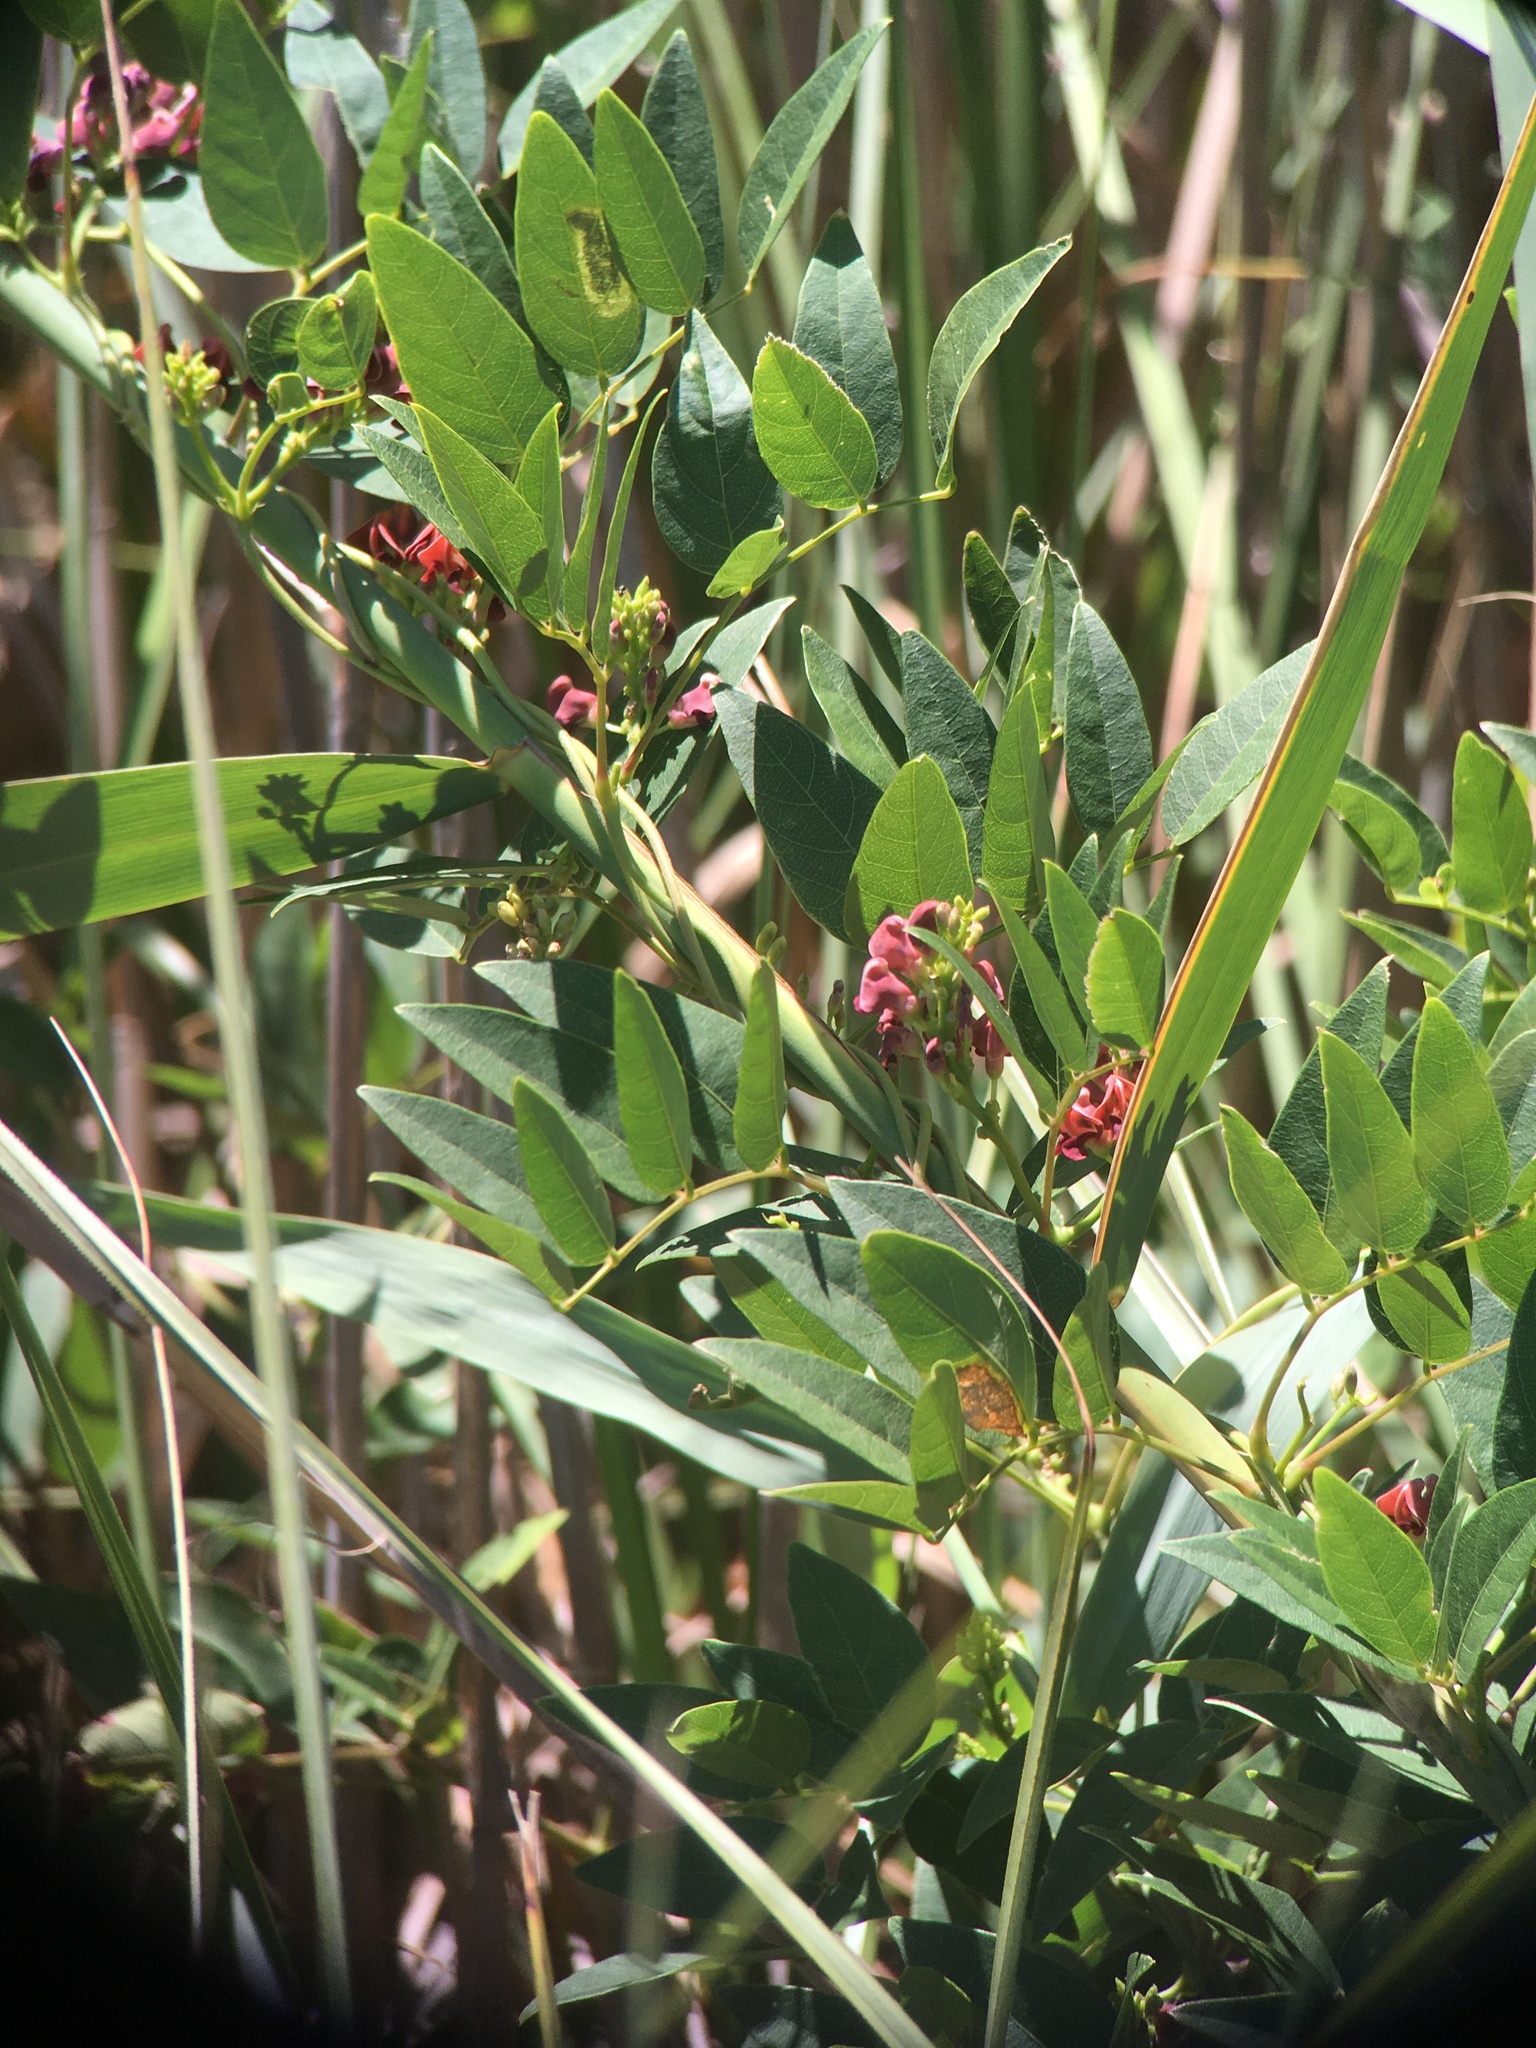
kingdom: Plantae
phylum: Tracheophyta
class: Magnoliopsida
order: Fabales
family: Fabaceae
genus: Apios
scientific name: Apios americana
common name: American potato-bean
